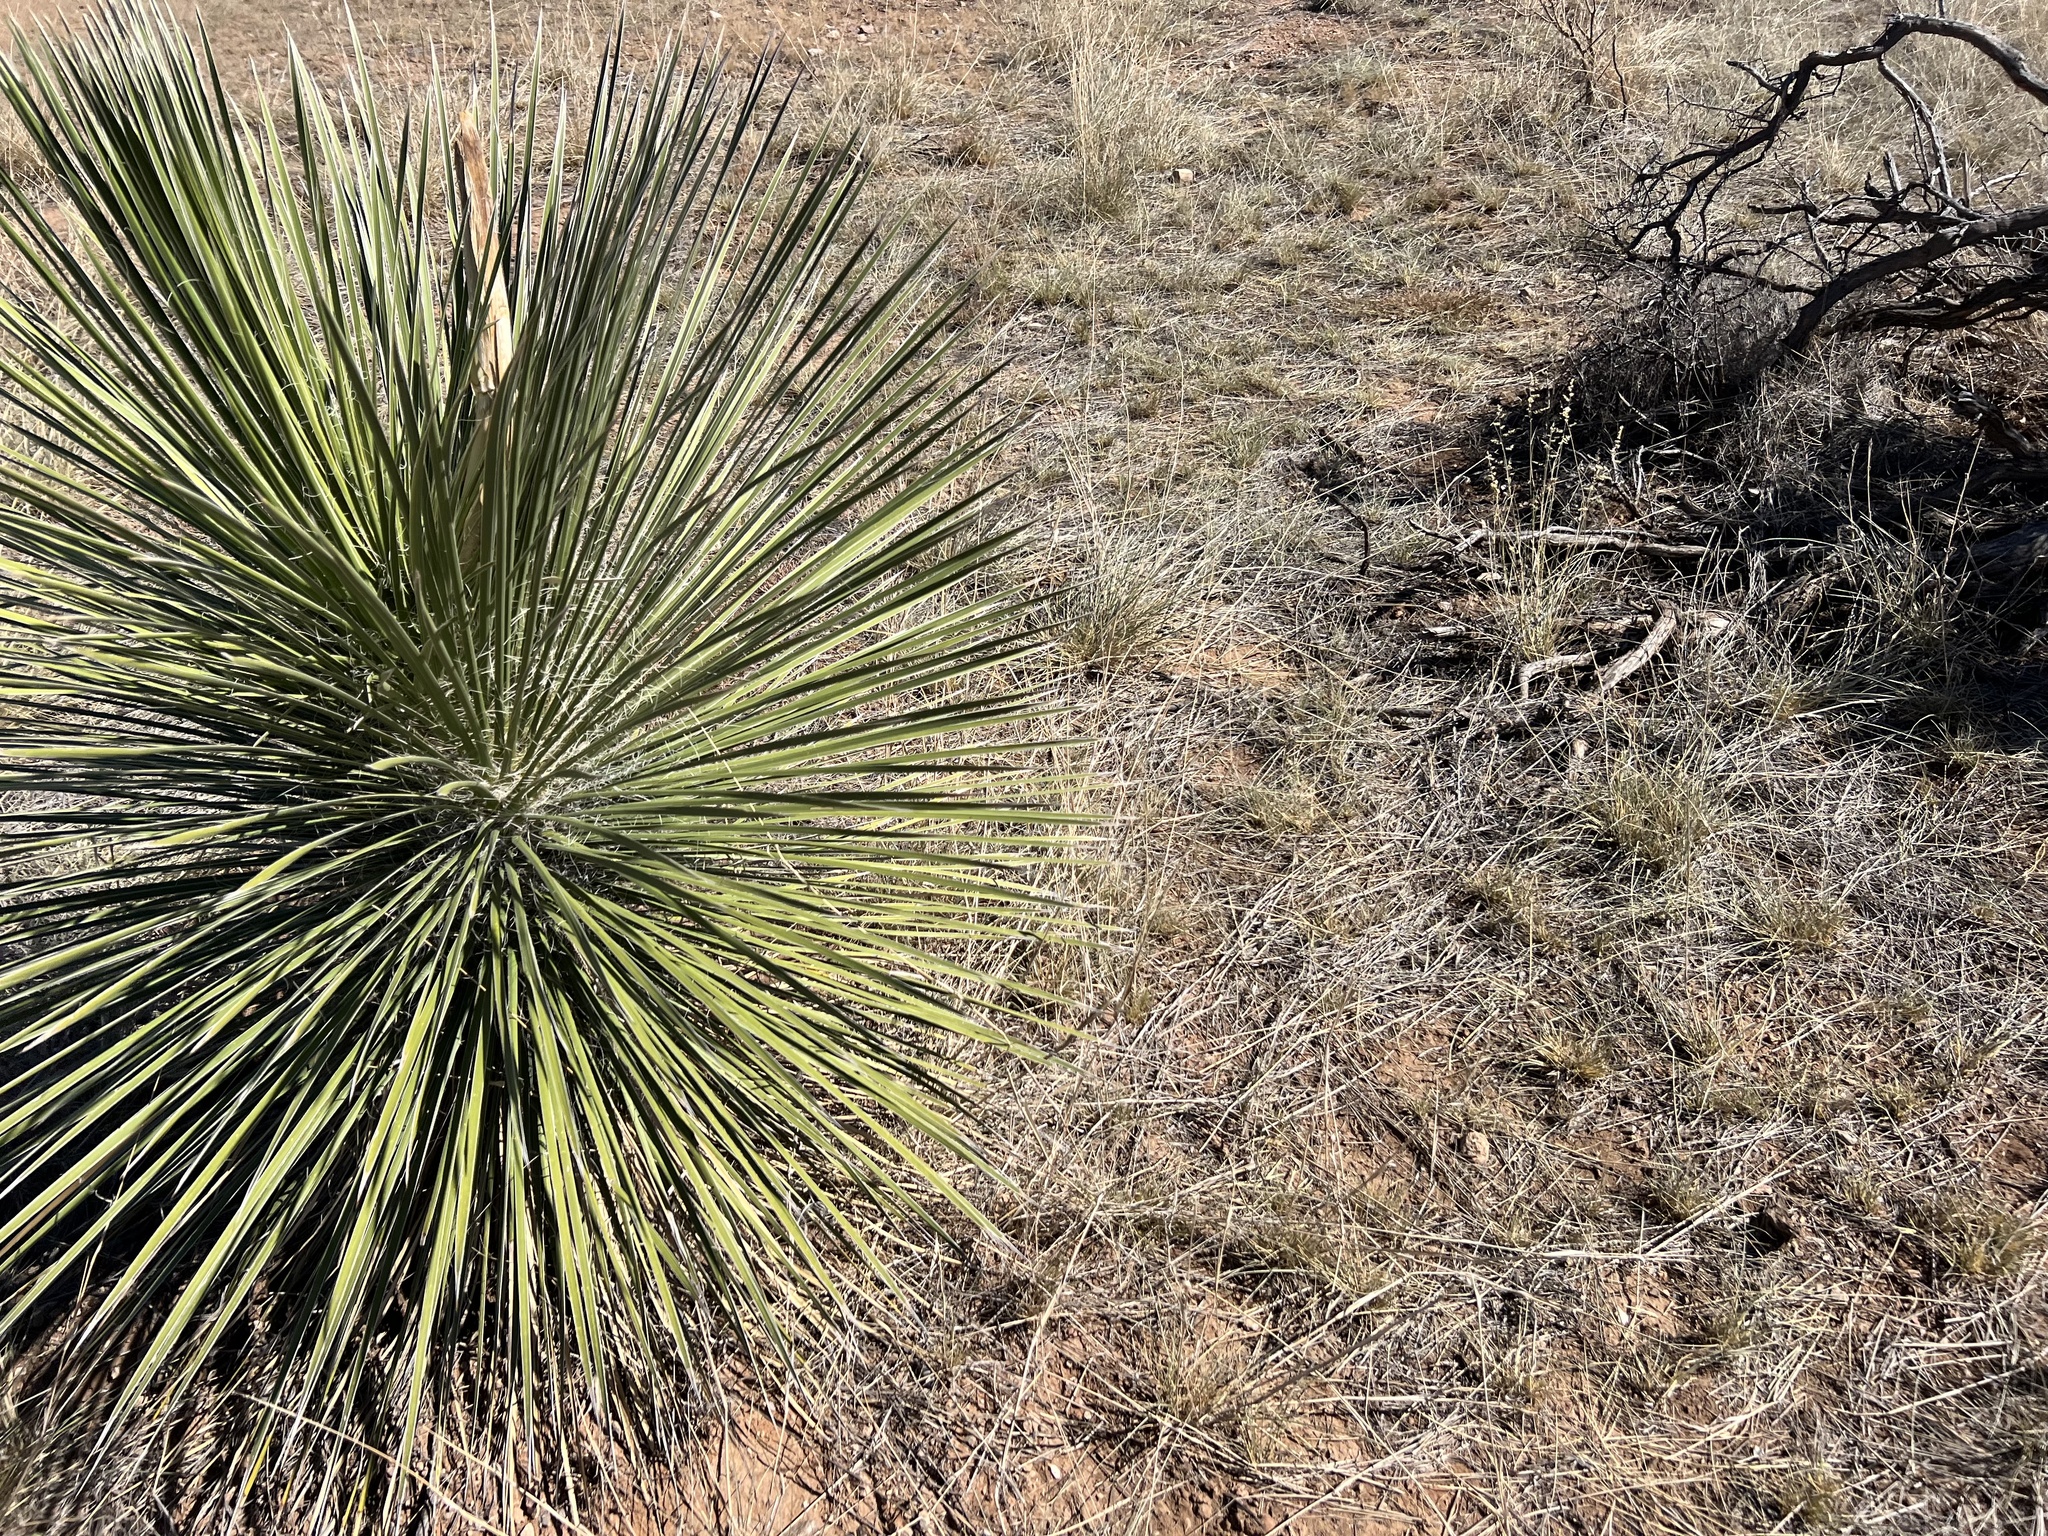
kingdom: Plantae
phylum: Tracheophyta
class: Liliopsida
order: Asparagales
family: Asparagaceae
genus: Yucca
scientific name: Yucca elata
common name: Palmella
